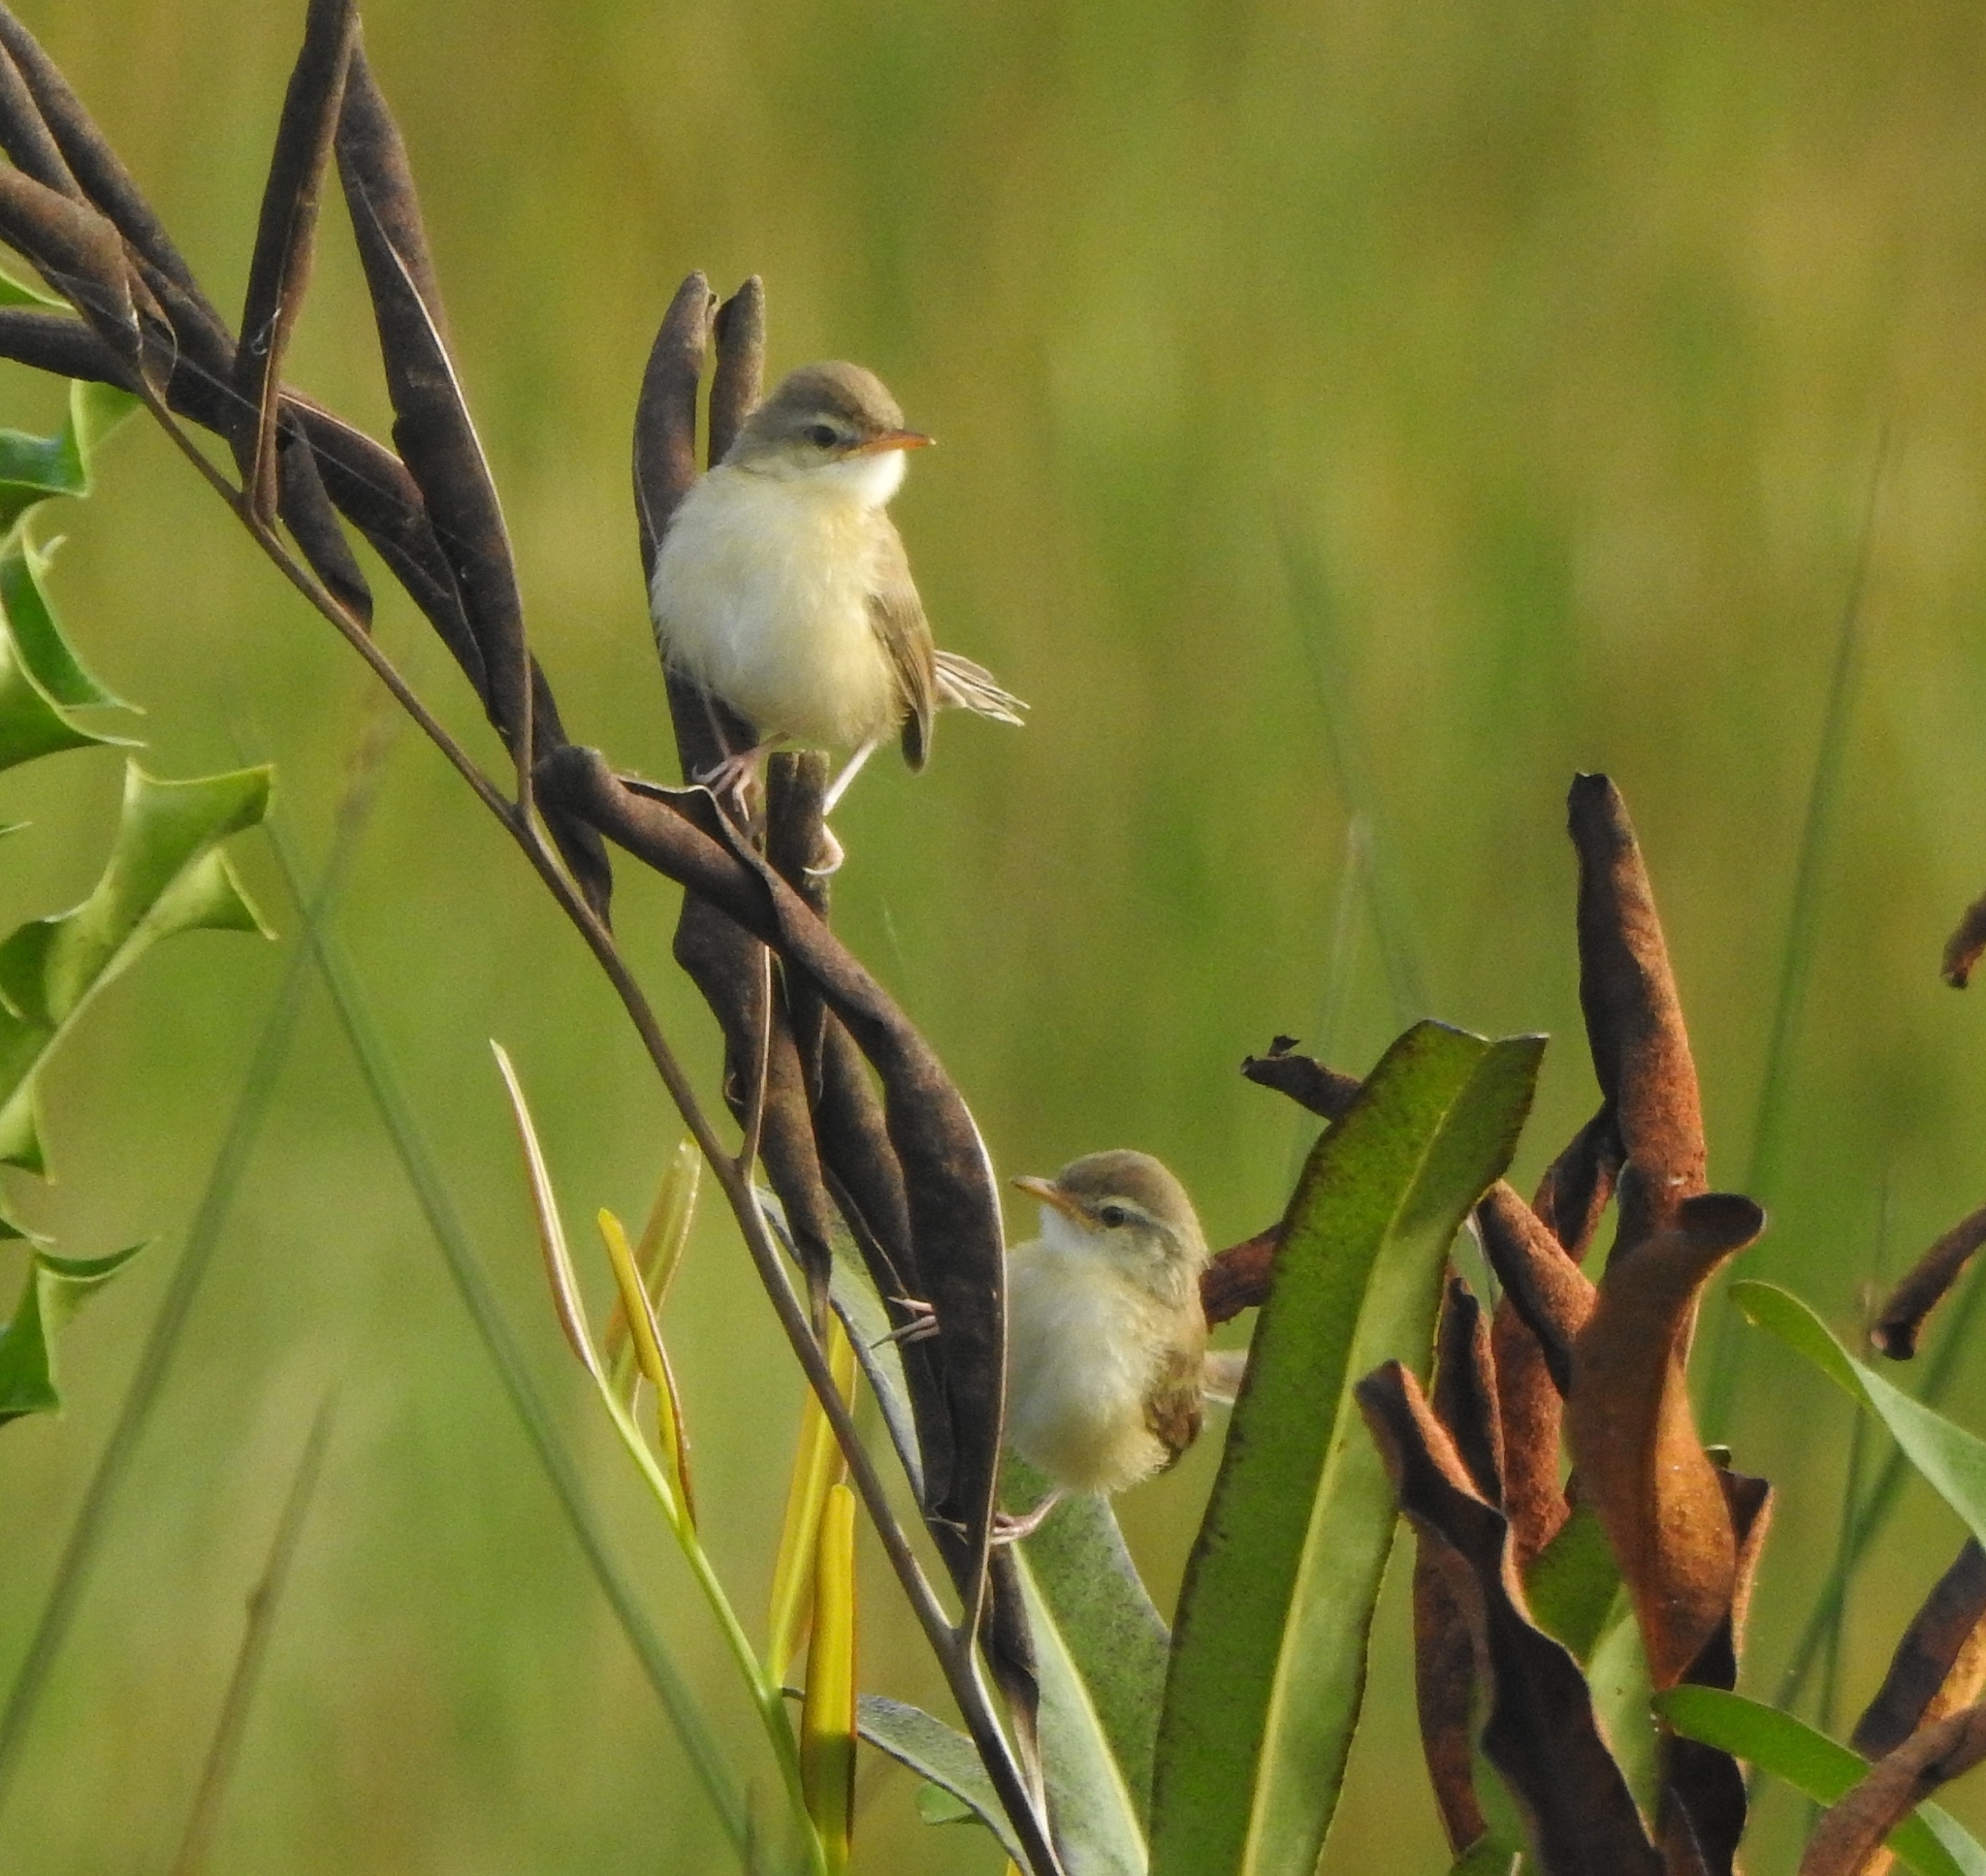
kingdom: Animalia
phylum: Chordata
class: Aves
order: Passeriformes
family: Cisticolidae
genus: Prinia
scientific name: Prinia inornata
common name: Plain prinia
